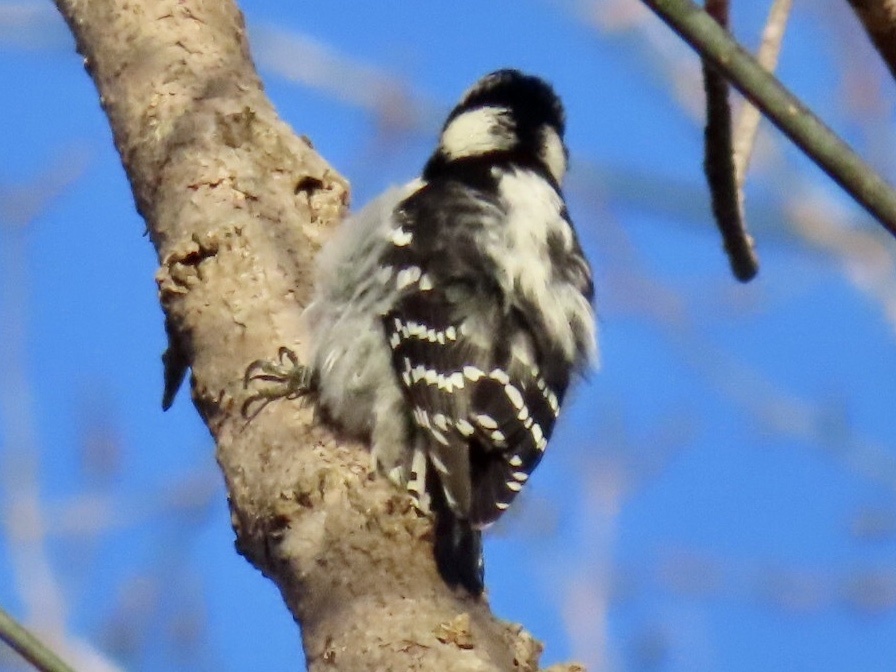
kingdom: Animalia
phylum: Chordata
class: Aves
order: Piciformes
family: Picidae
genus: Dryobates
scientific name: Dryobates pubescens
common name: Downy woodpecker
